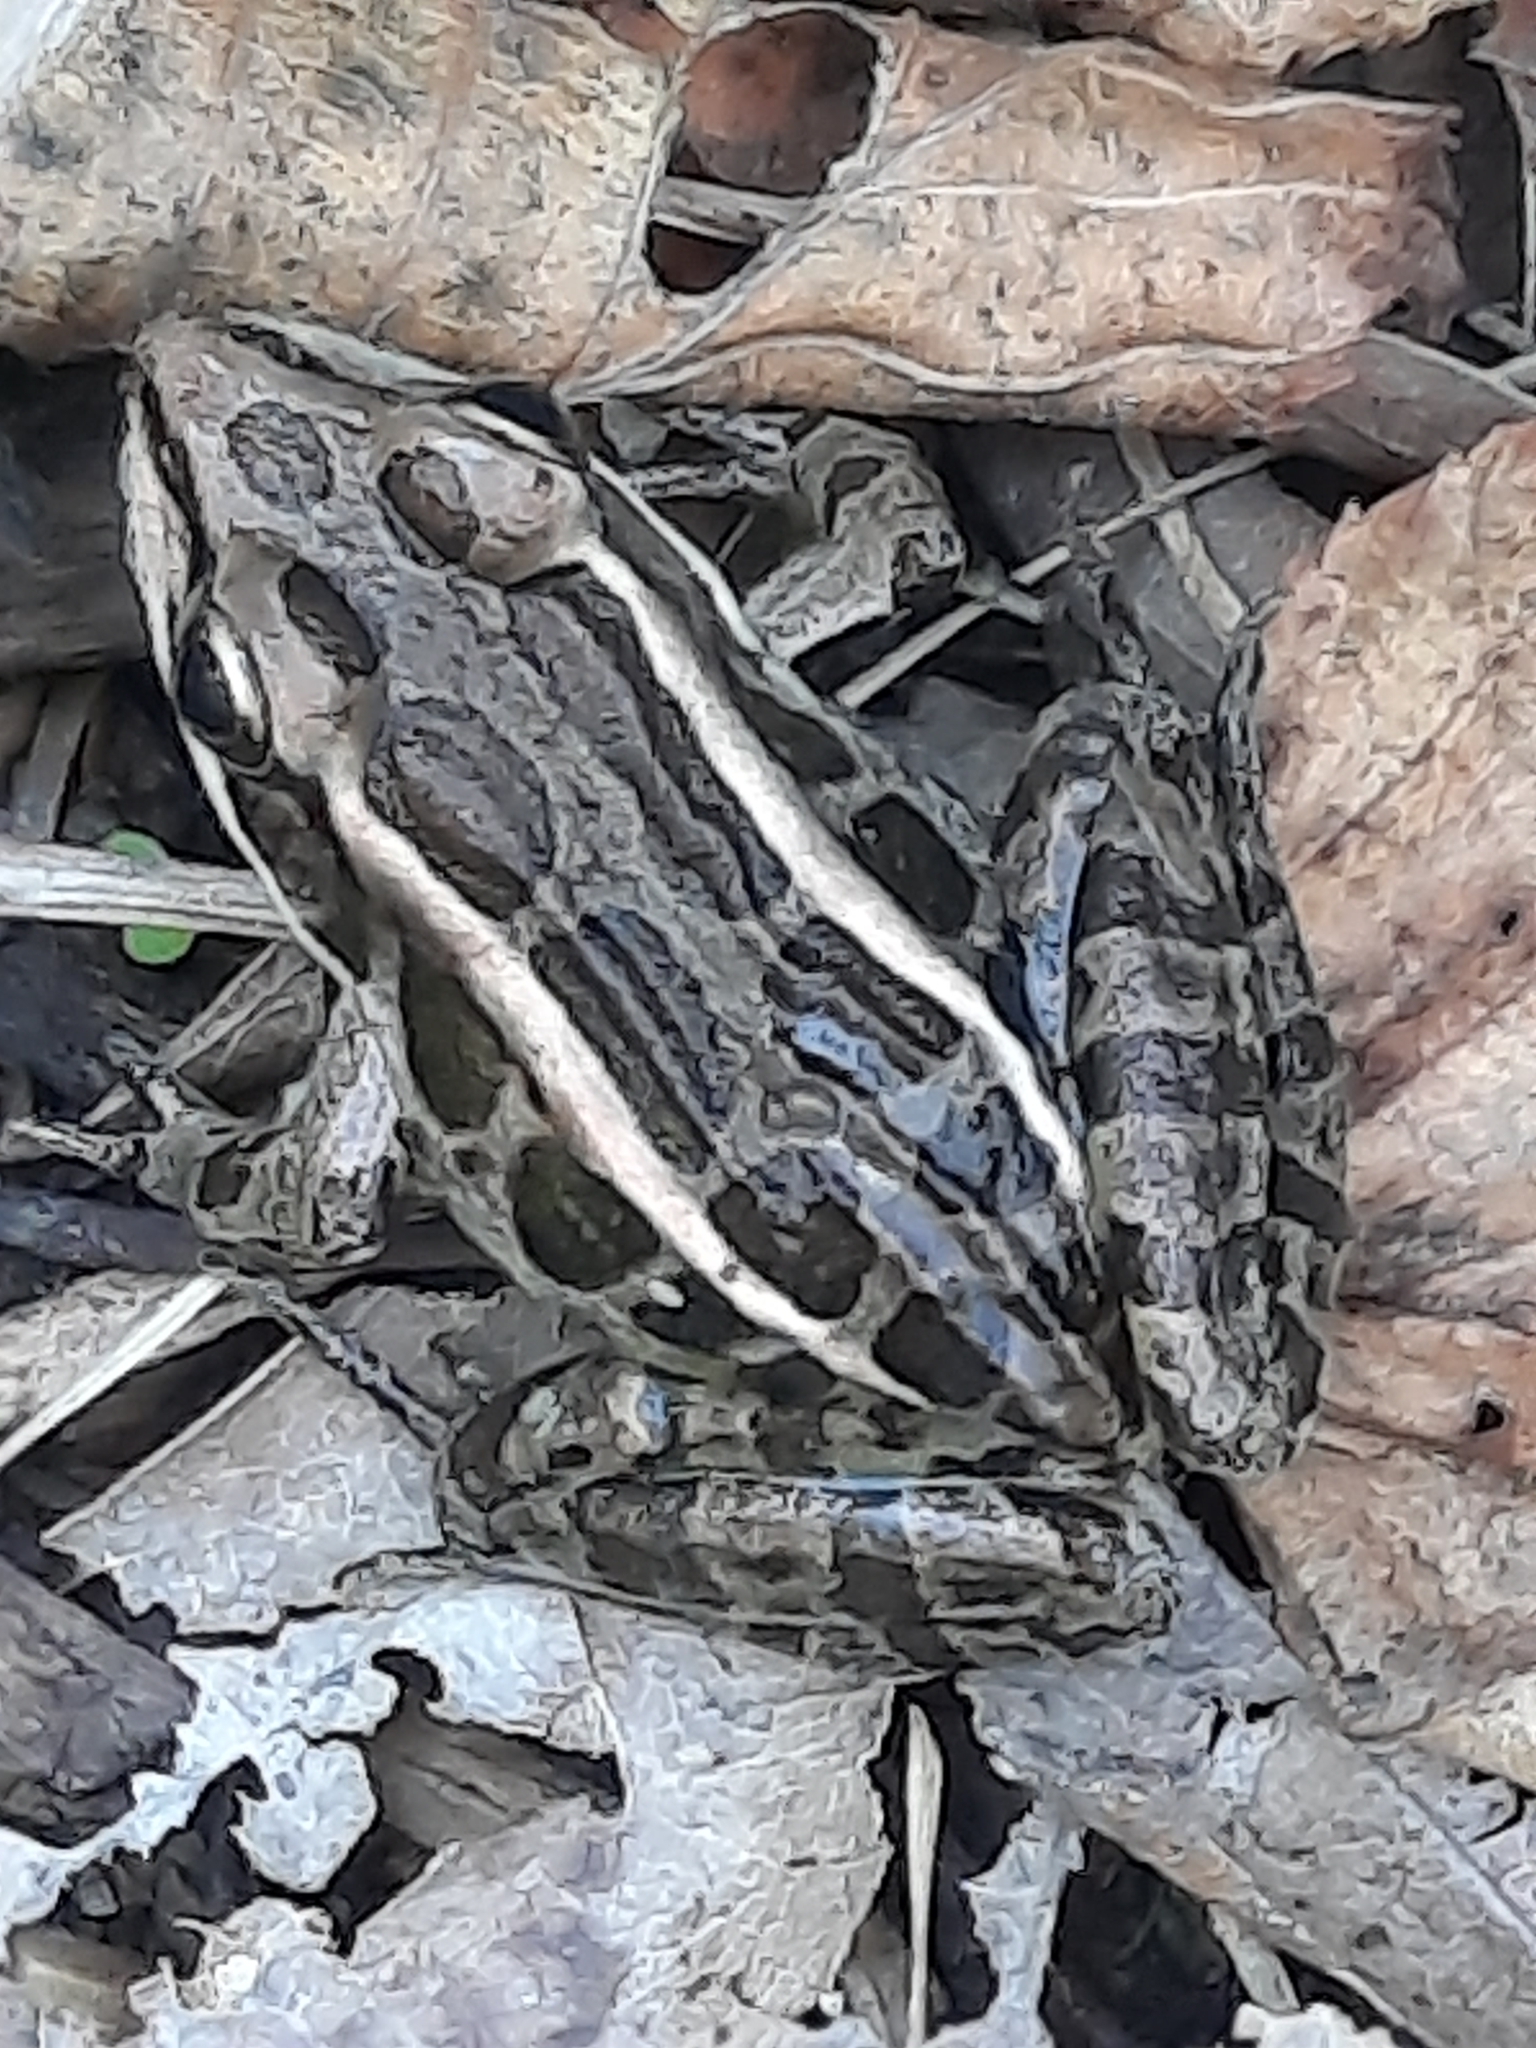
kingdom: Animalia
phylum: Chordata
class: Amphibia
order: Anura
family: Ranidae
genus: Lithobates
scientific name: Lithobates palustris
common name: Pickerel frog
